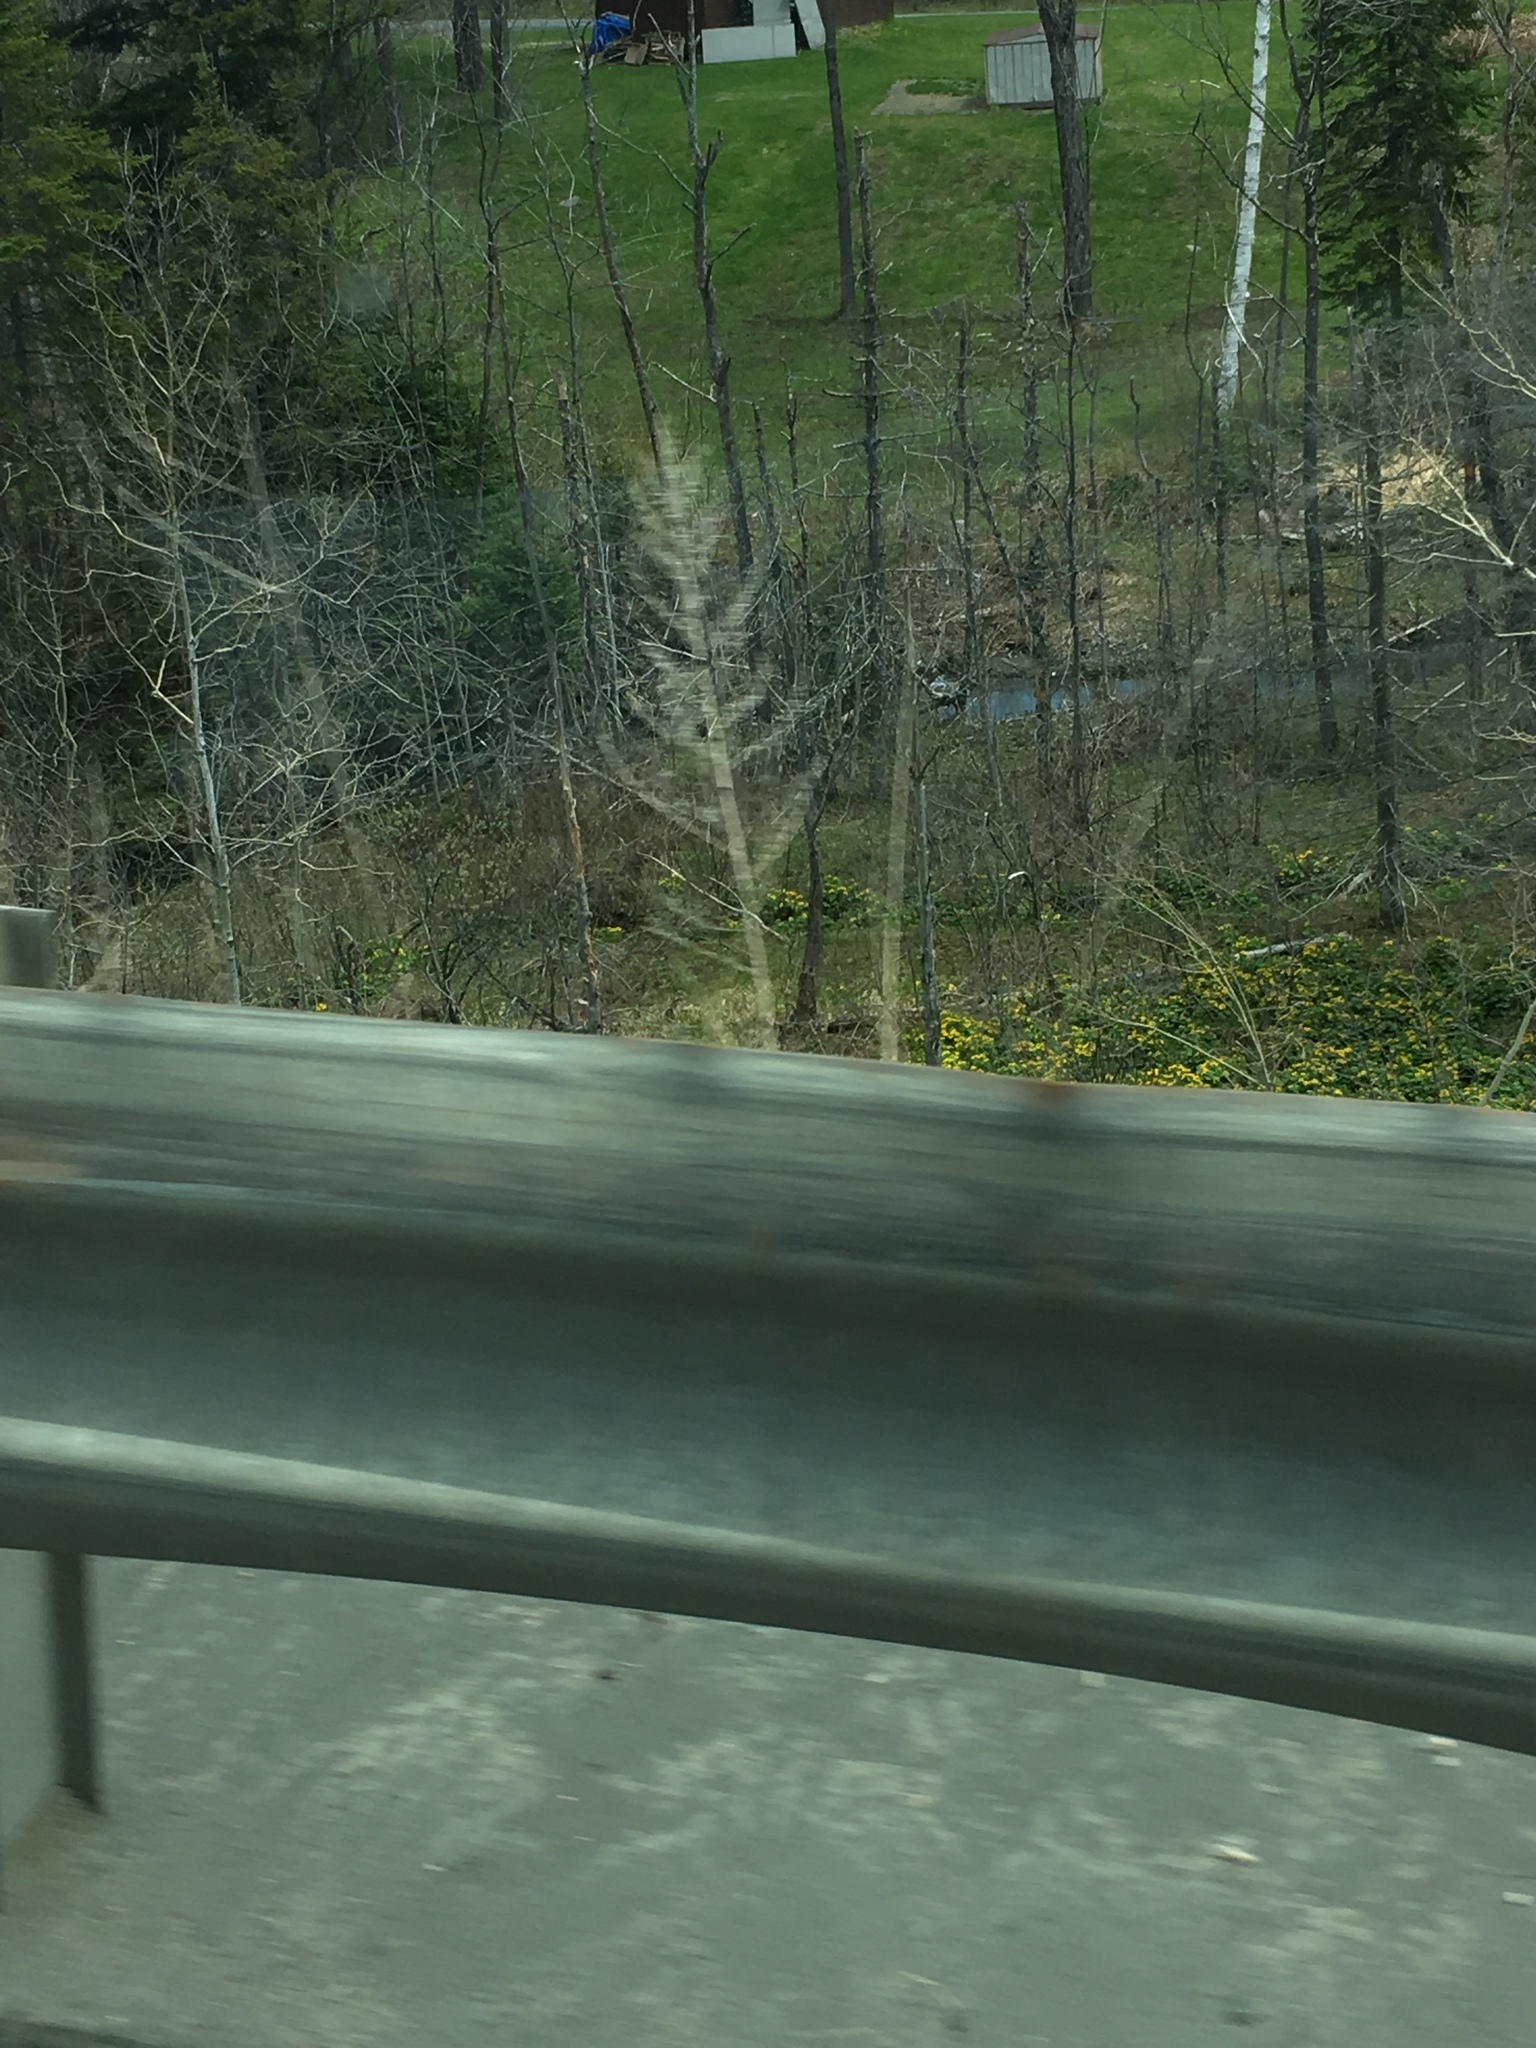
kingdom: Plantae
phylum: Tracheophyta
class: Magnoliopsida
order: Ranunculales
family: Ranunculaceae
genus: Caltha
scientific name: Caltha palustris
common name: Marsh marigold
